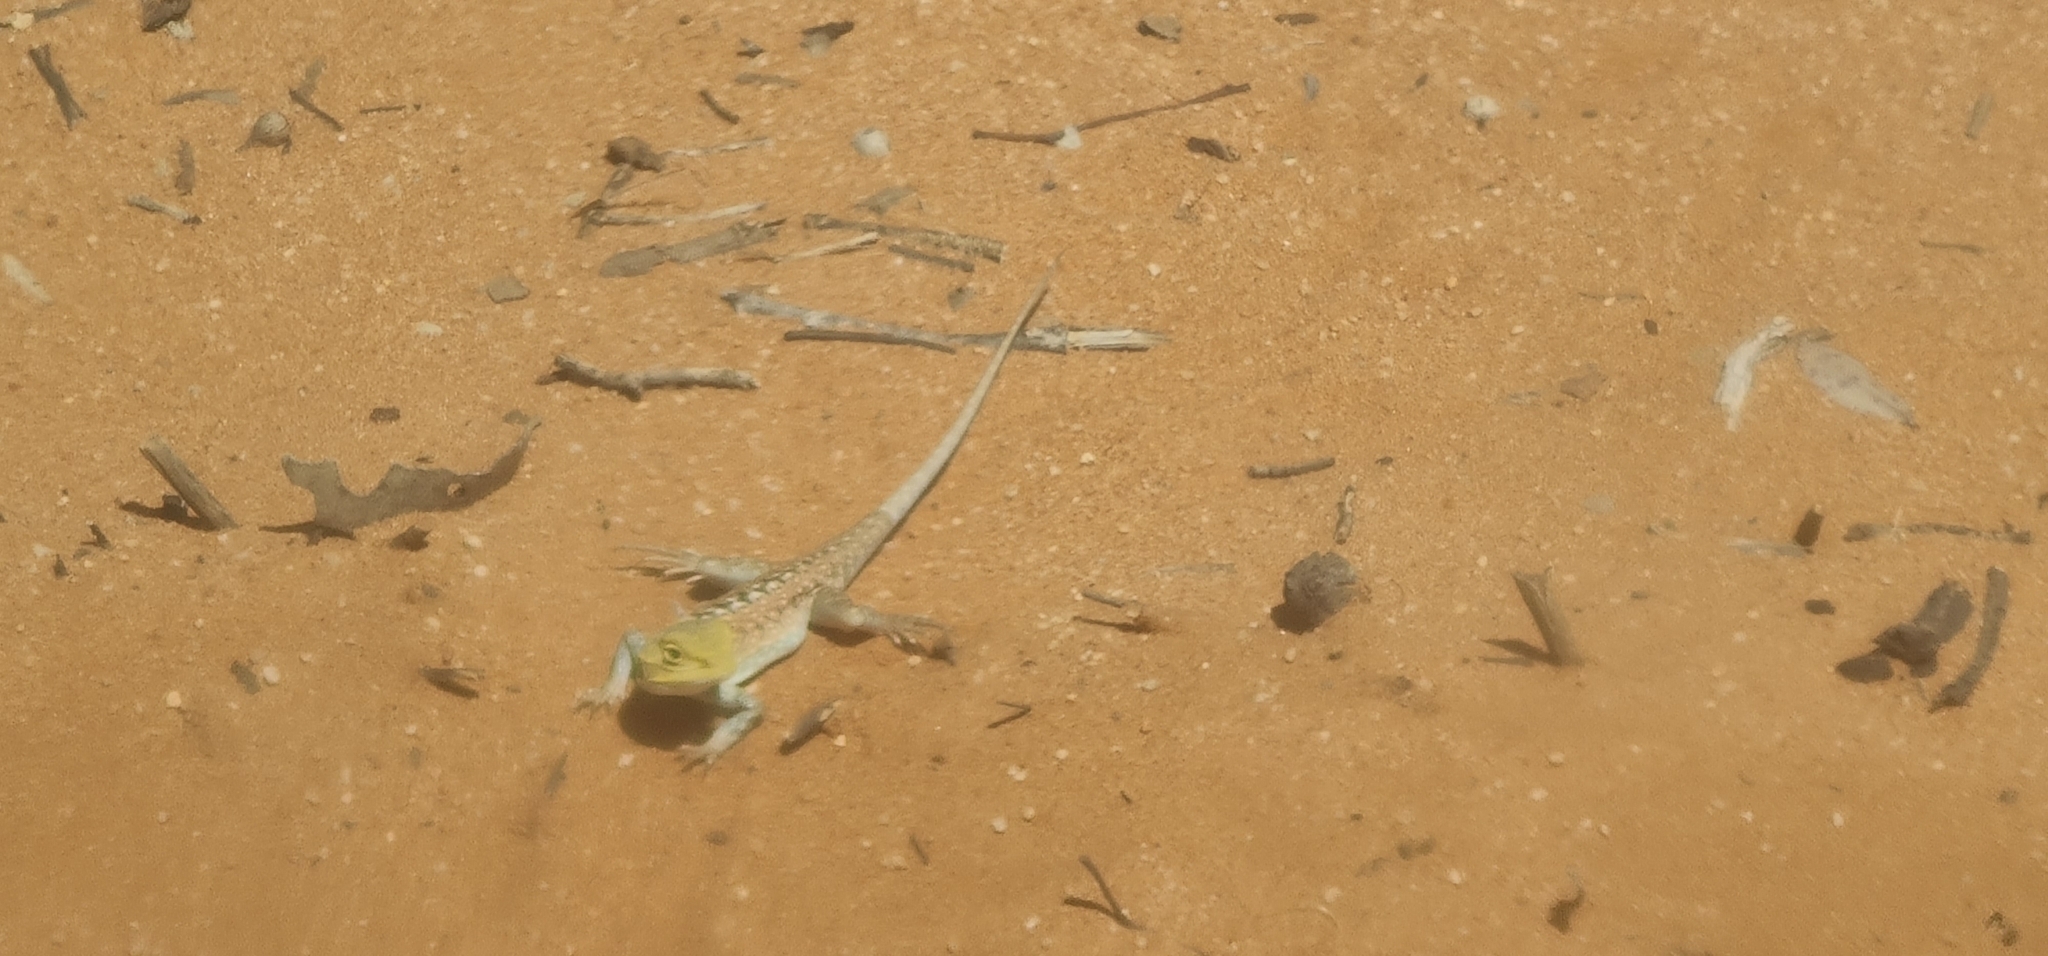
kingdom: Animalia
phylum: Chordata
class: Squamata
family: Agamidae
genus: Ctenophorus
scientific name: Ctenophorus pictus
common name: Painted dragon
